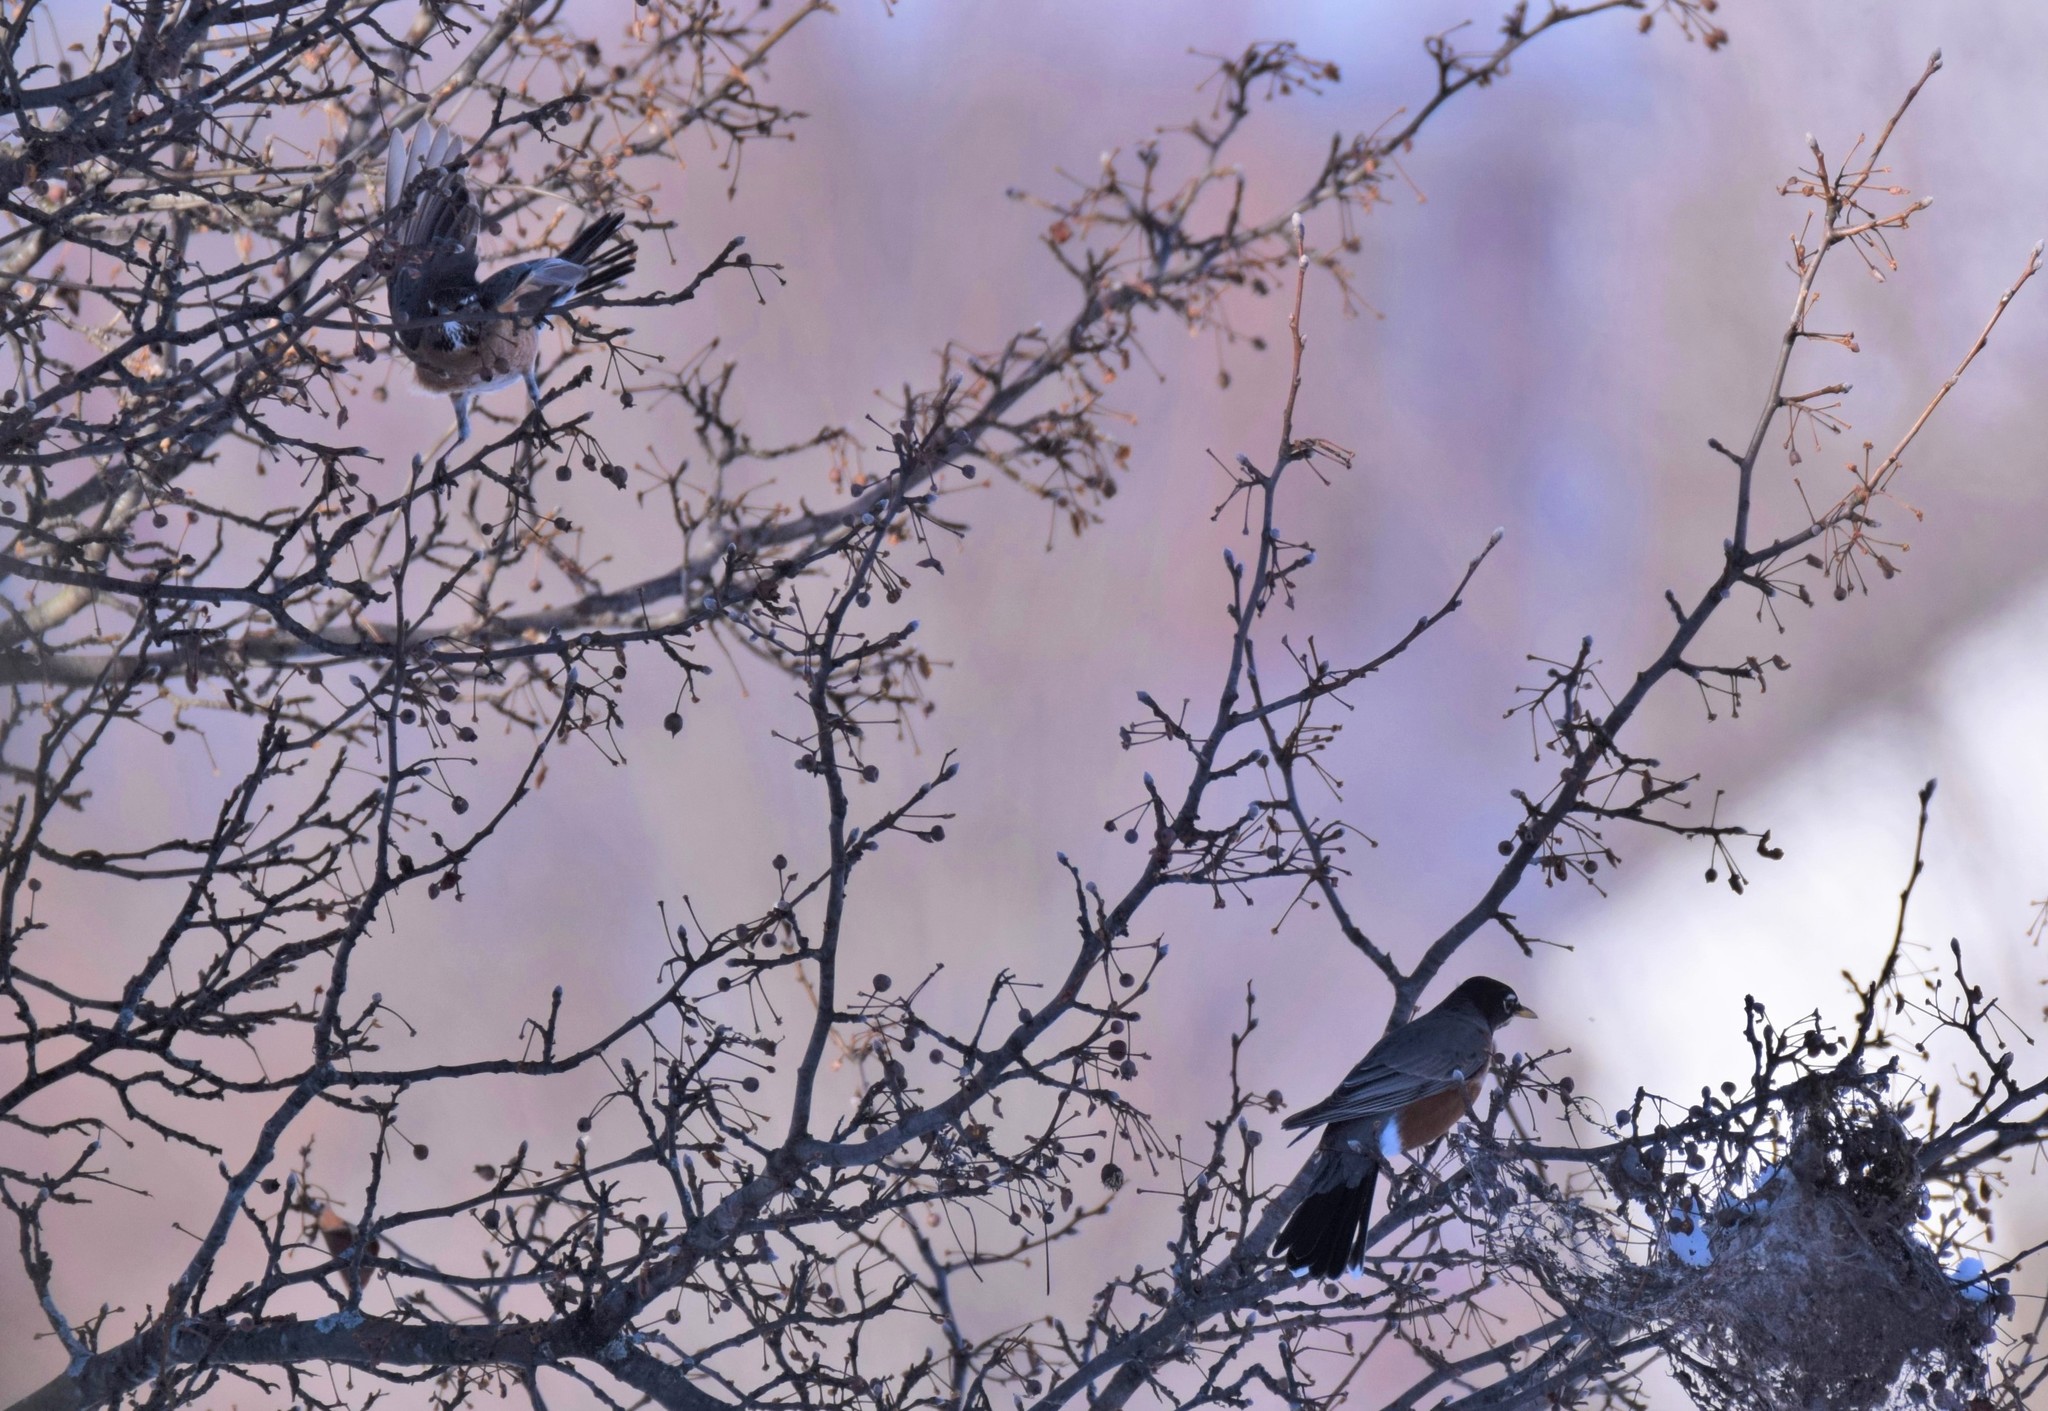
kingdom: Animalia
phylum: Chordata
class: Aves
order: Passeriformes
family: Turdidae
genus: Turdus
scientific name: Turdus migratorius
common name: American robin
